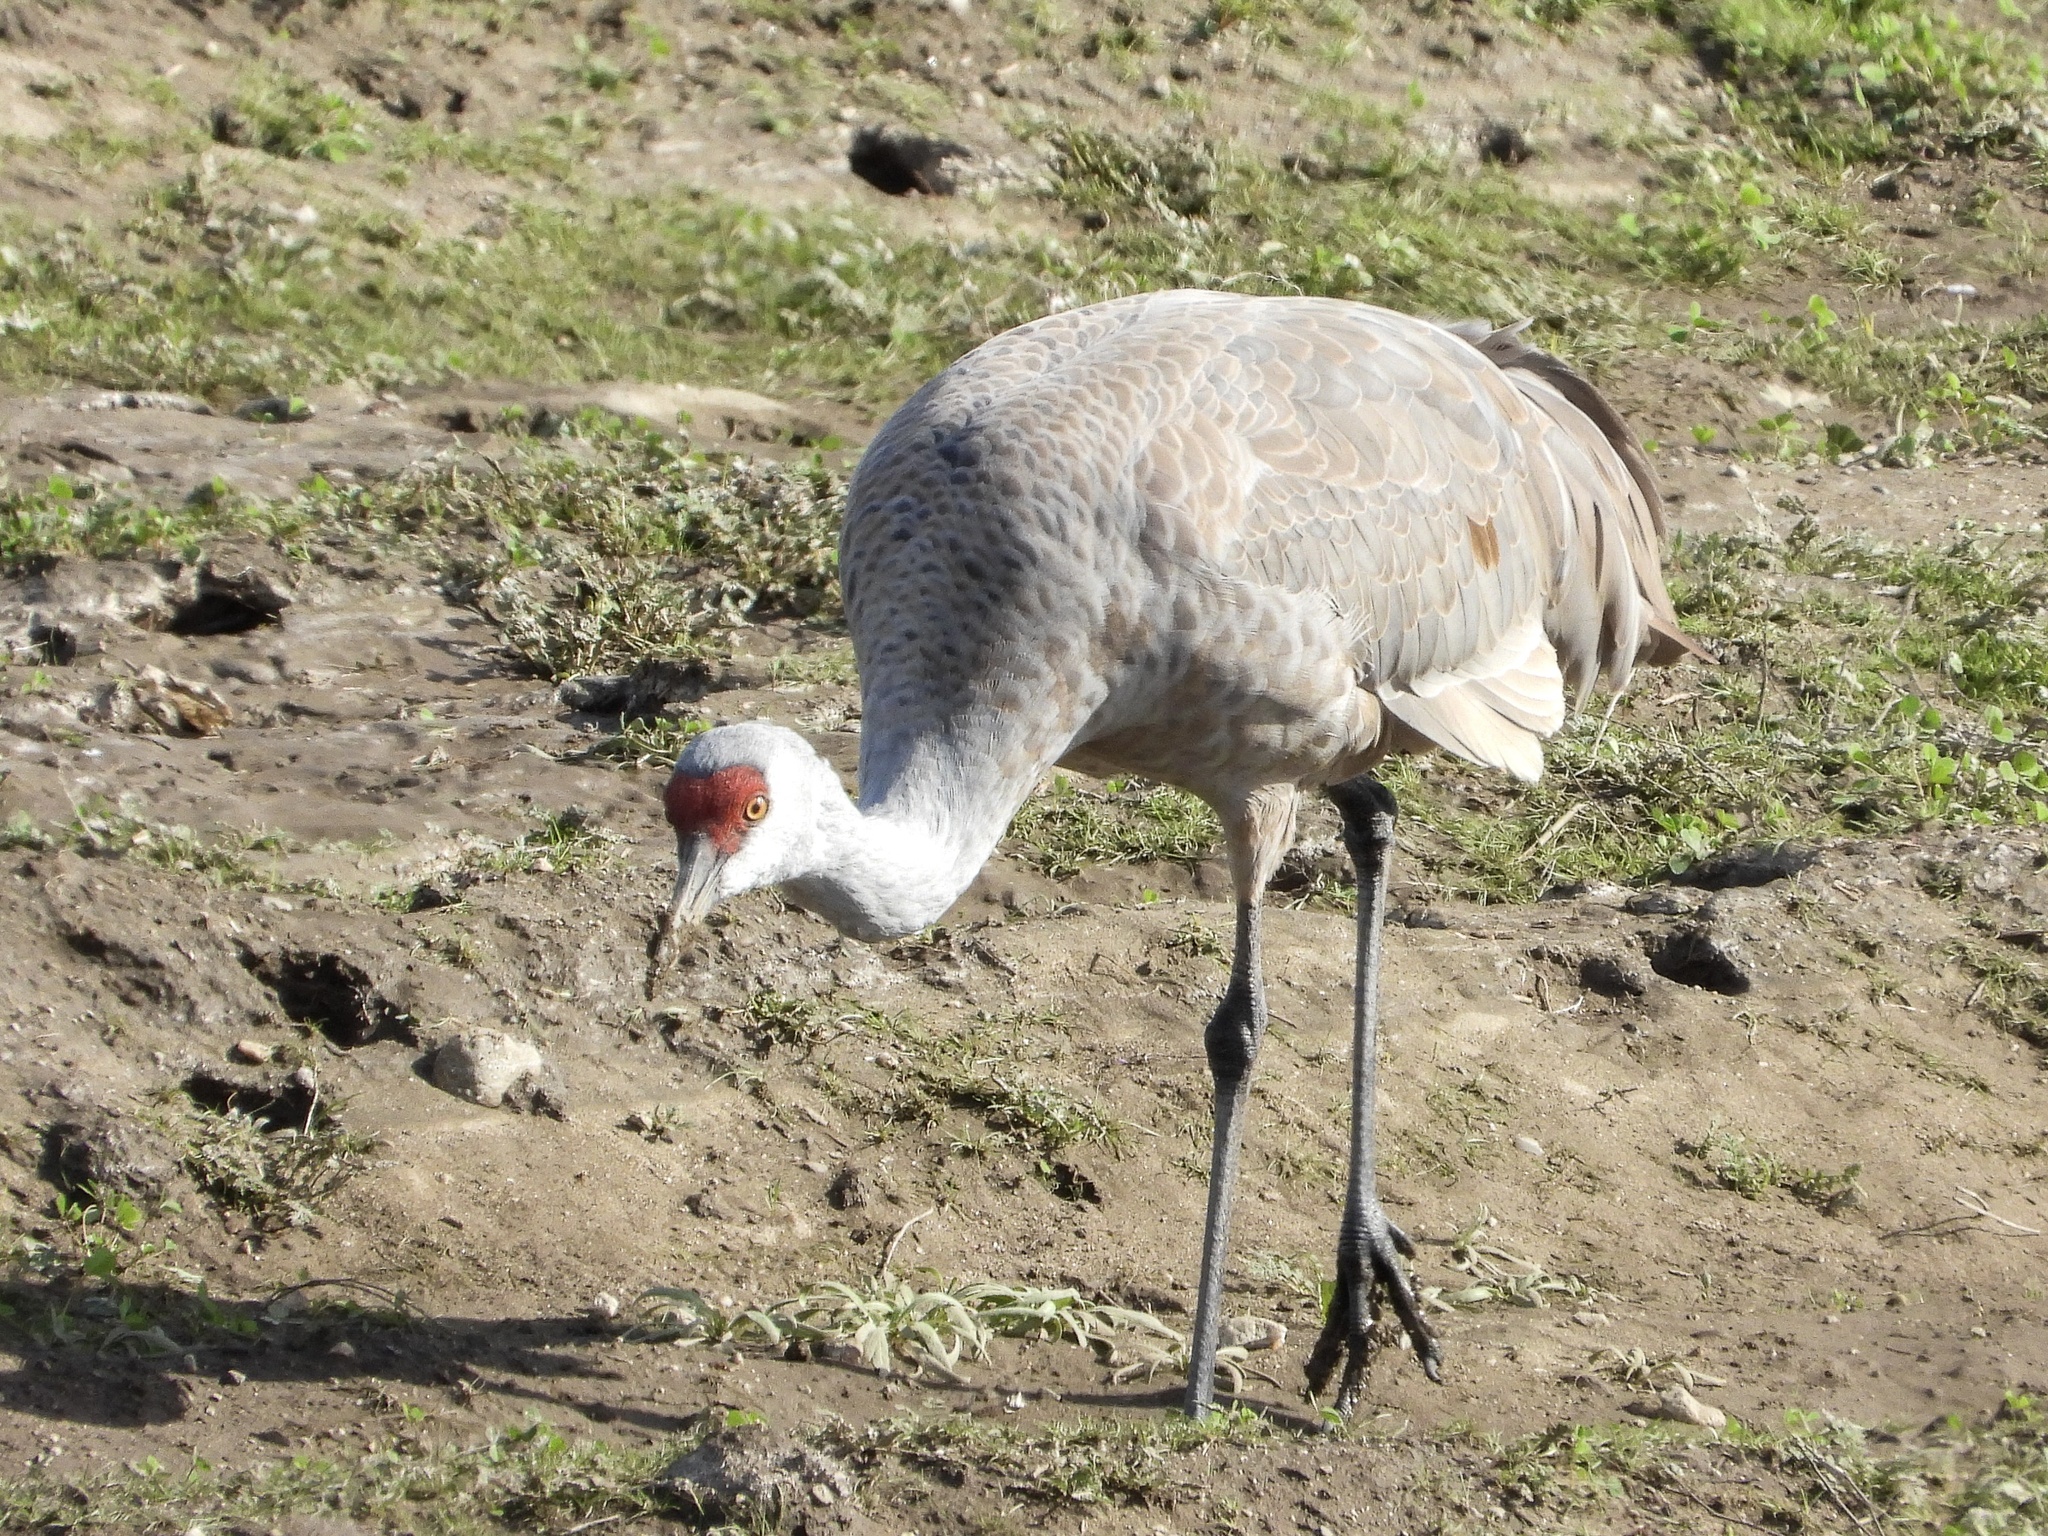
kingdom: Animalia
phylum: Chordata
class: Aves
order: Gruiformes
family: Gruidae
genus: Grus
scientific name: Grus canadensis
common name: Sandhill crane
